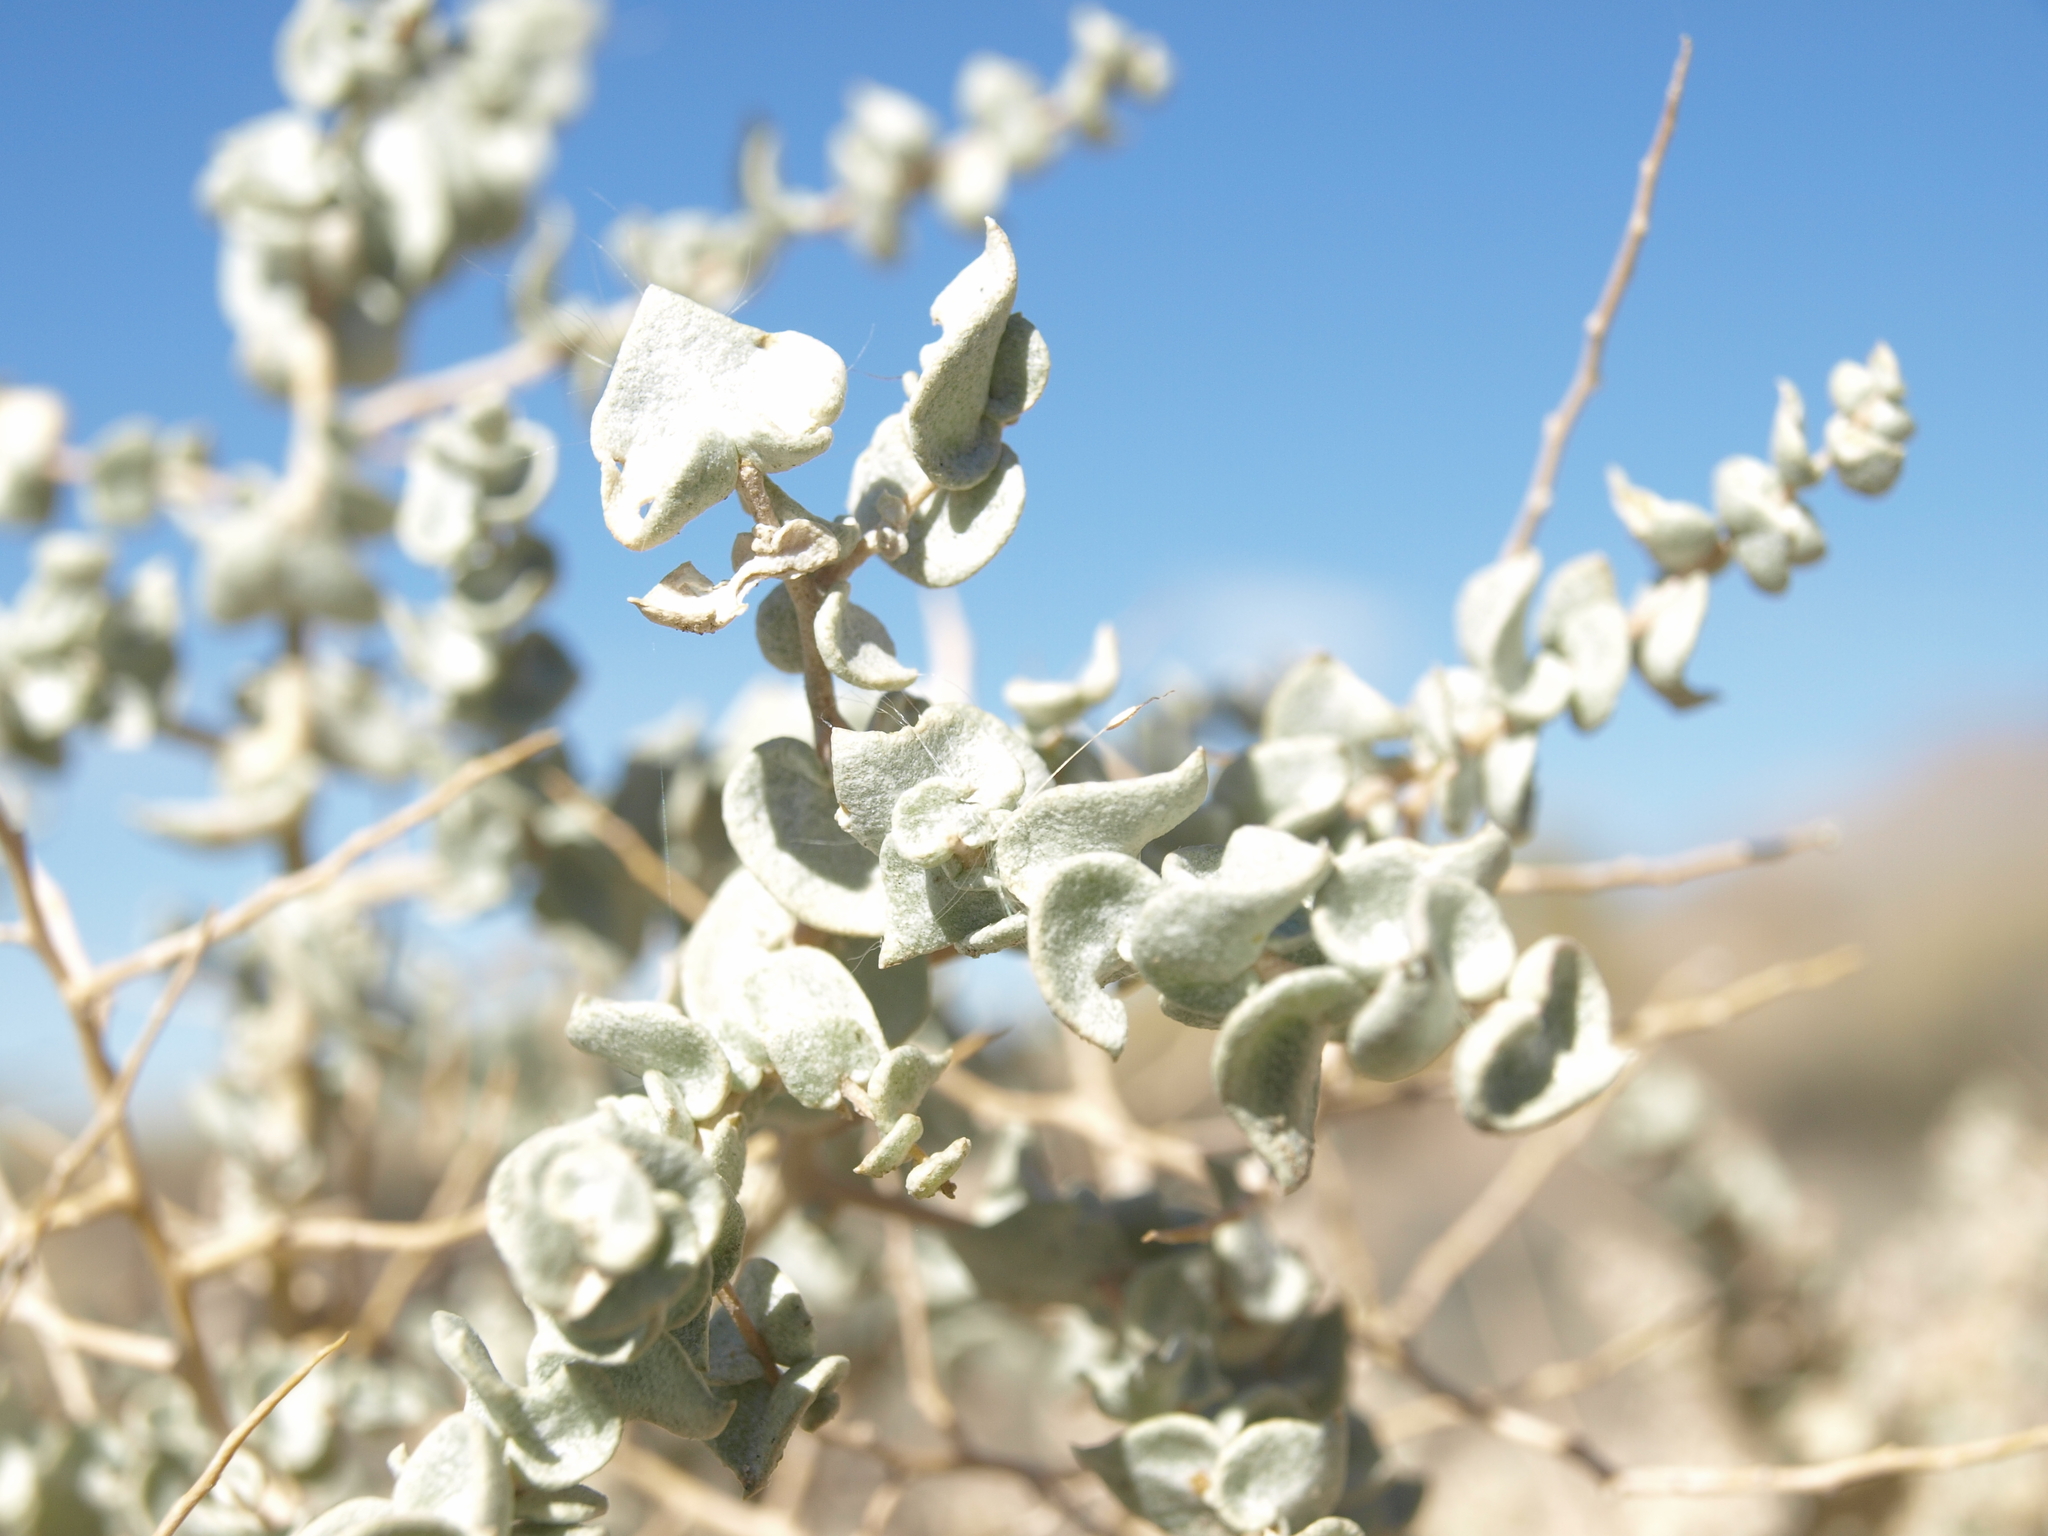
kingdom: Plantae
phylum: Tracheophyta
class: Magnoliopsida
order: Caryophyllales
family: Amaranthaceae
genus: Atriplex
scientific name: Atriplex parryi
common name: Parry's saltbush
